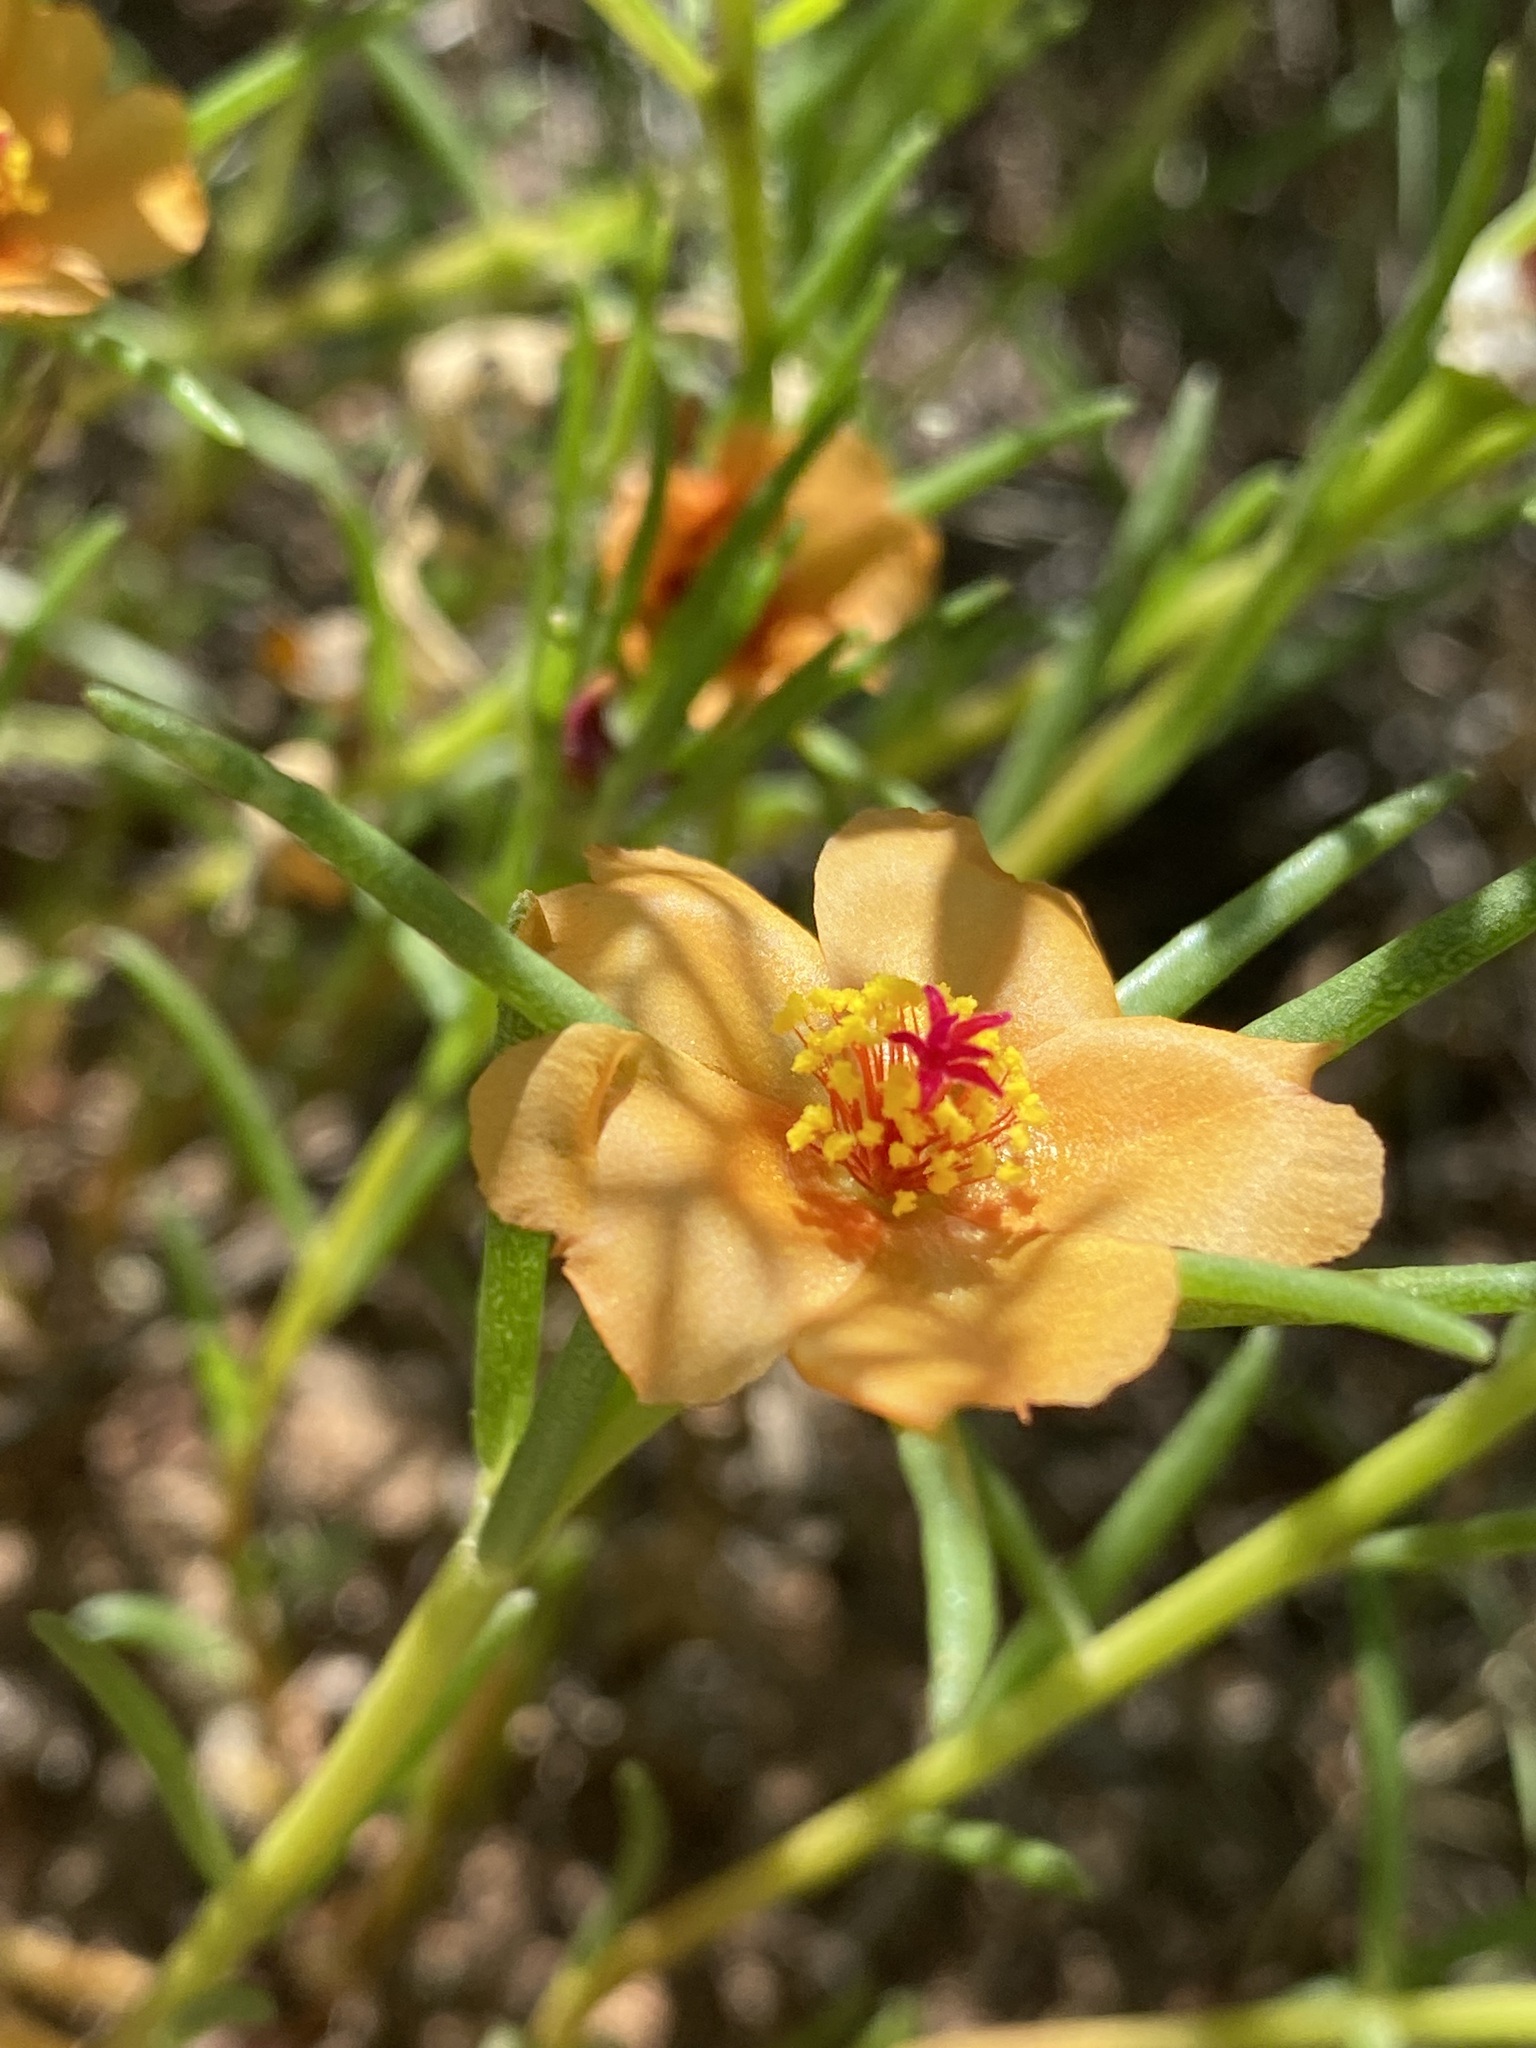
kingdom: Plantae
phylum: Tracheophyta
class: Magnoliopsida
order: Caryophyllales
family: Portulacaceae
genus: Portulaca
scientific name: Portulaca suffrutescens
